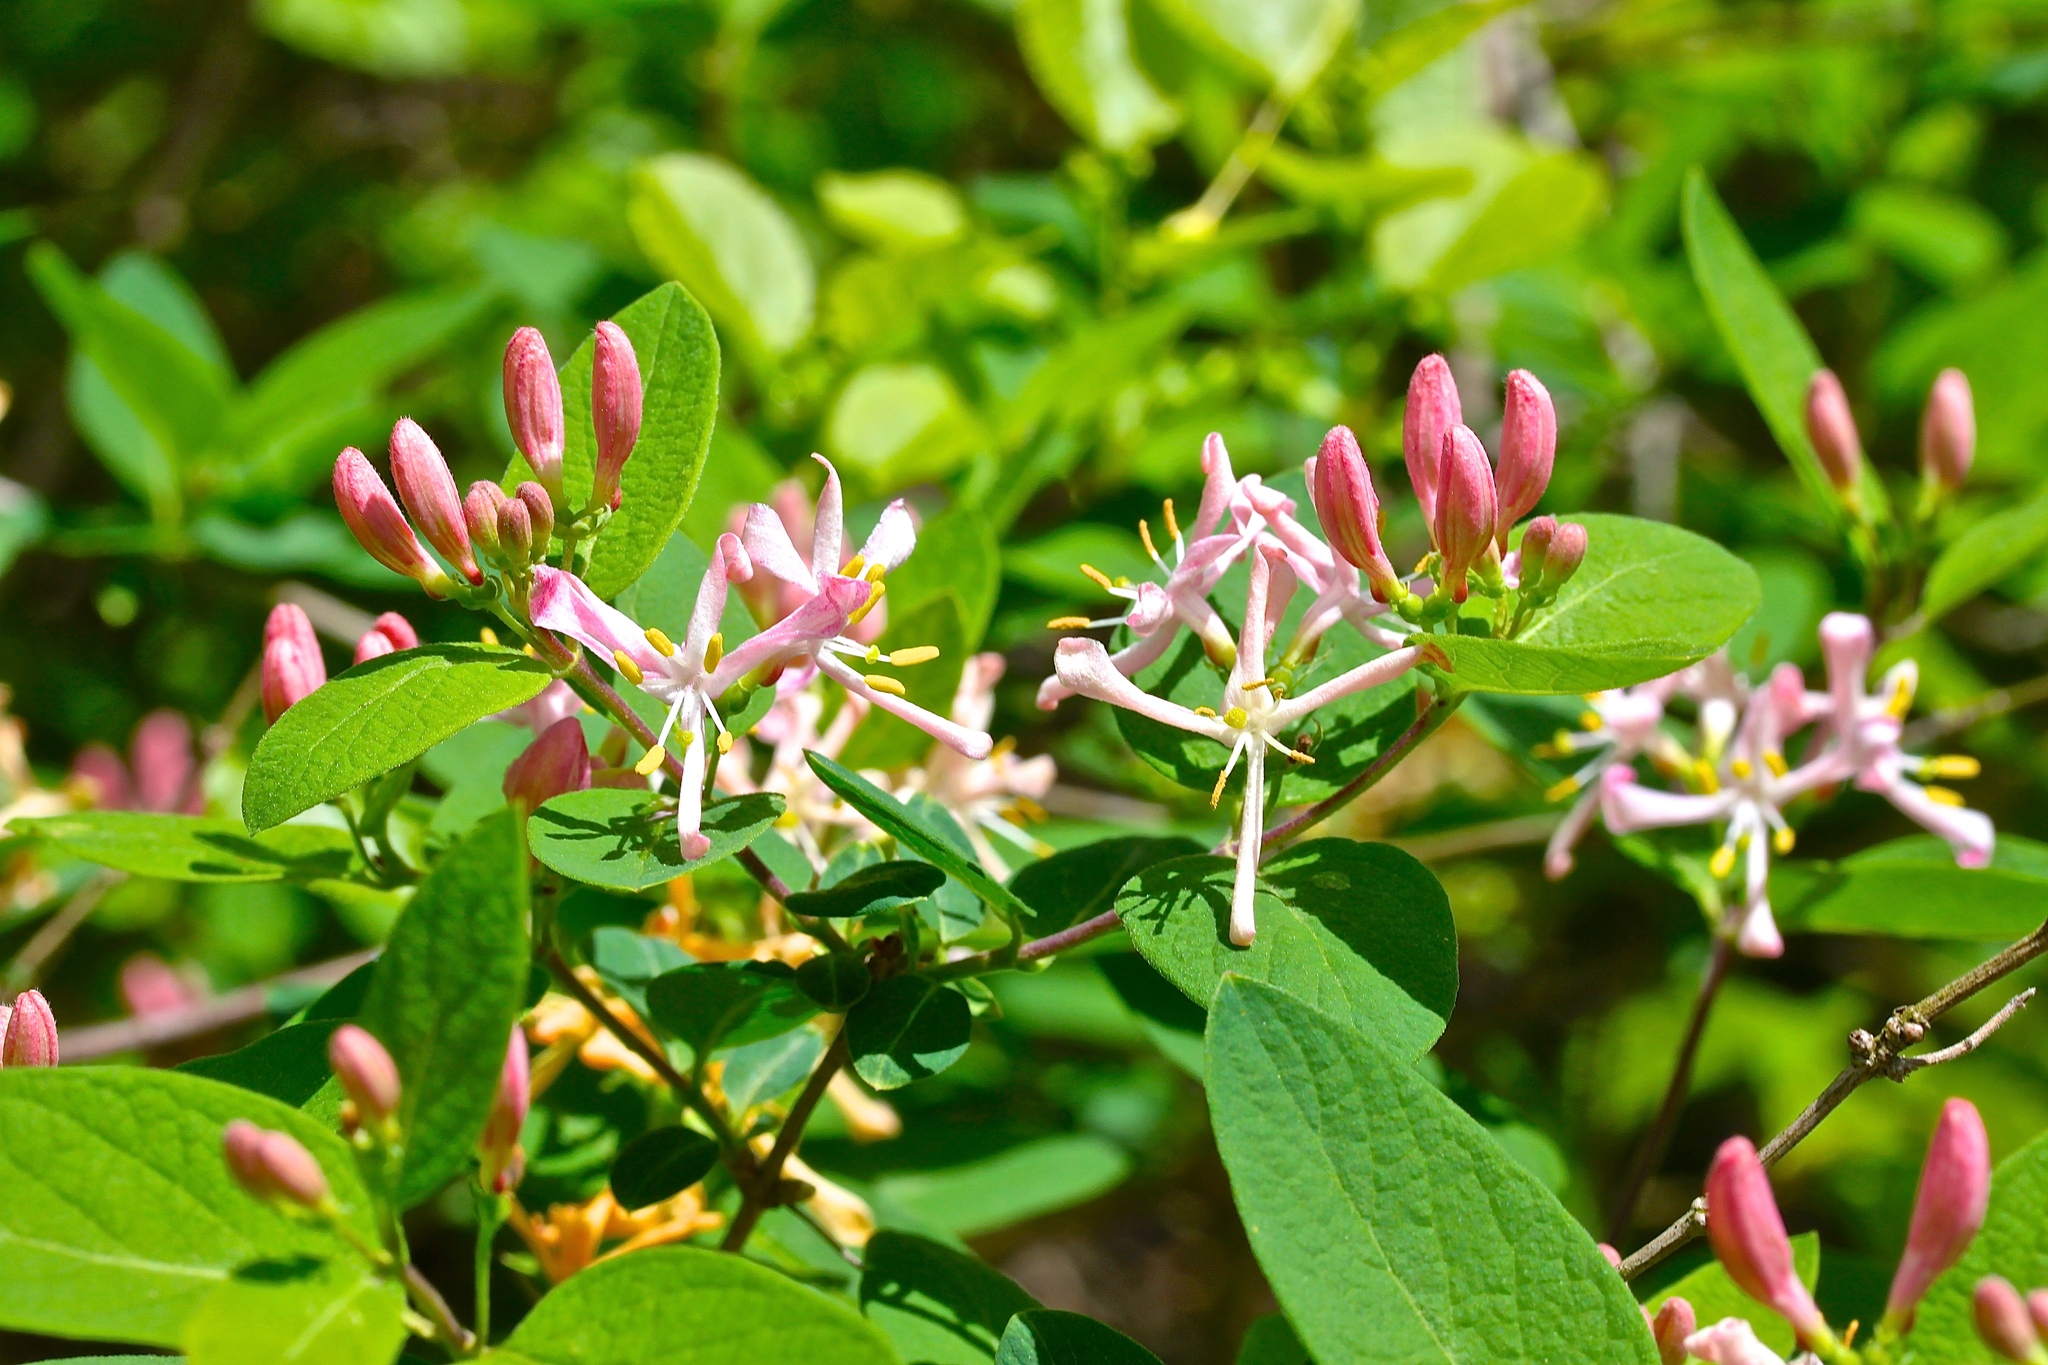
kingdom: Plantae
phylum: Tracheophyta
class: Magnoliopsida
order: Dipsacales
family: Caprifoliaceae
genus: Lonicera
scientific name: Lonicera tatarica
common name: Tatarian honeysuckle
